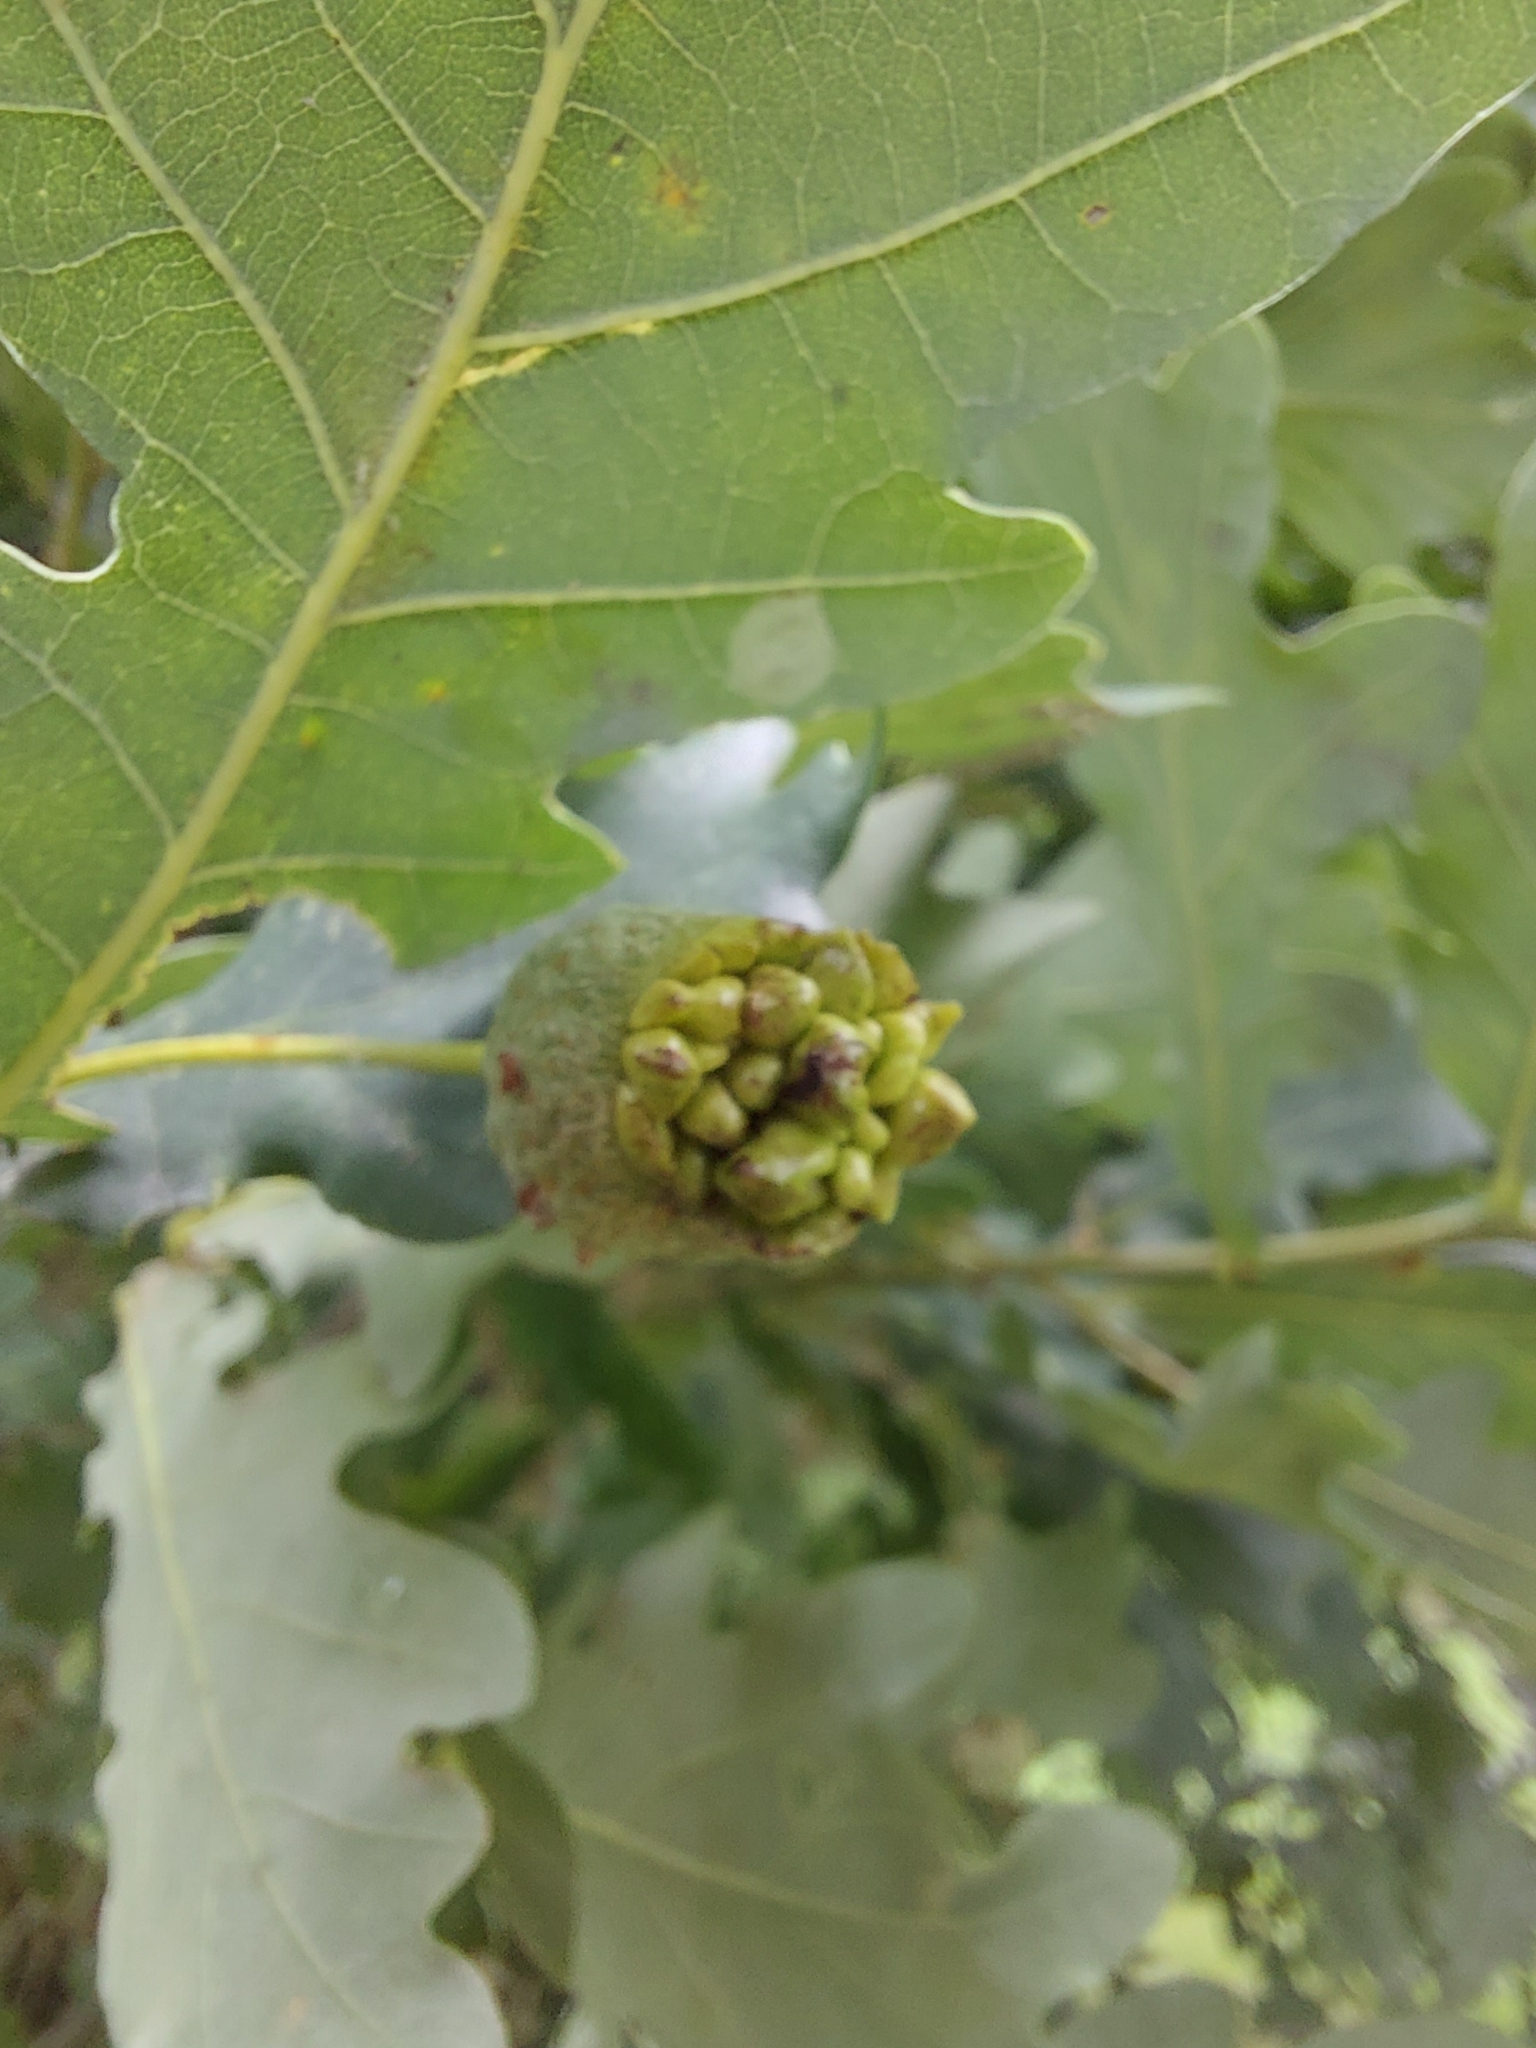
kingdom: Animalia
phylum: Arthropoda
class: Insecta
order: Hymenoptera
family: Cynipidae
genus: Andricus
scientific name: Andricus quercuscalicis
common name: Knopper gall
